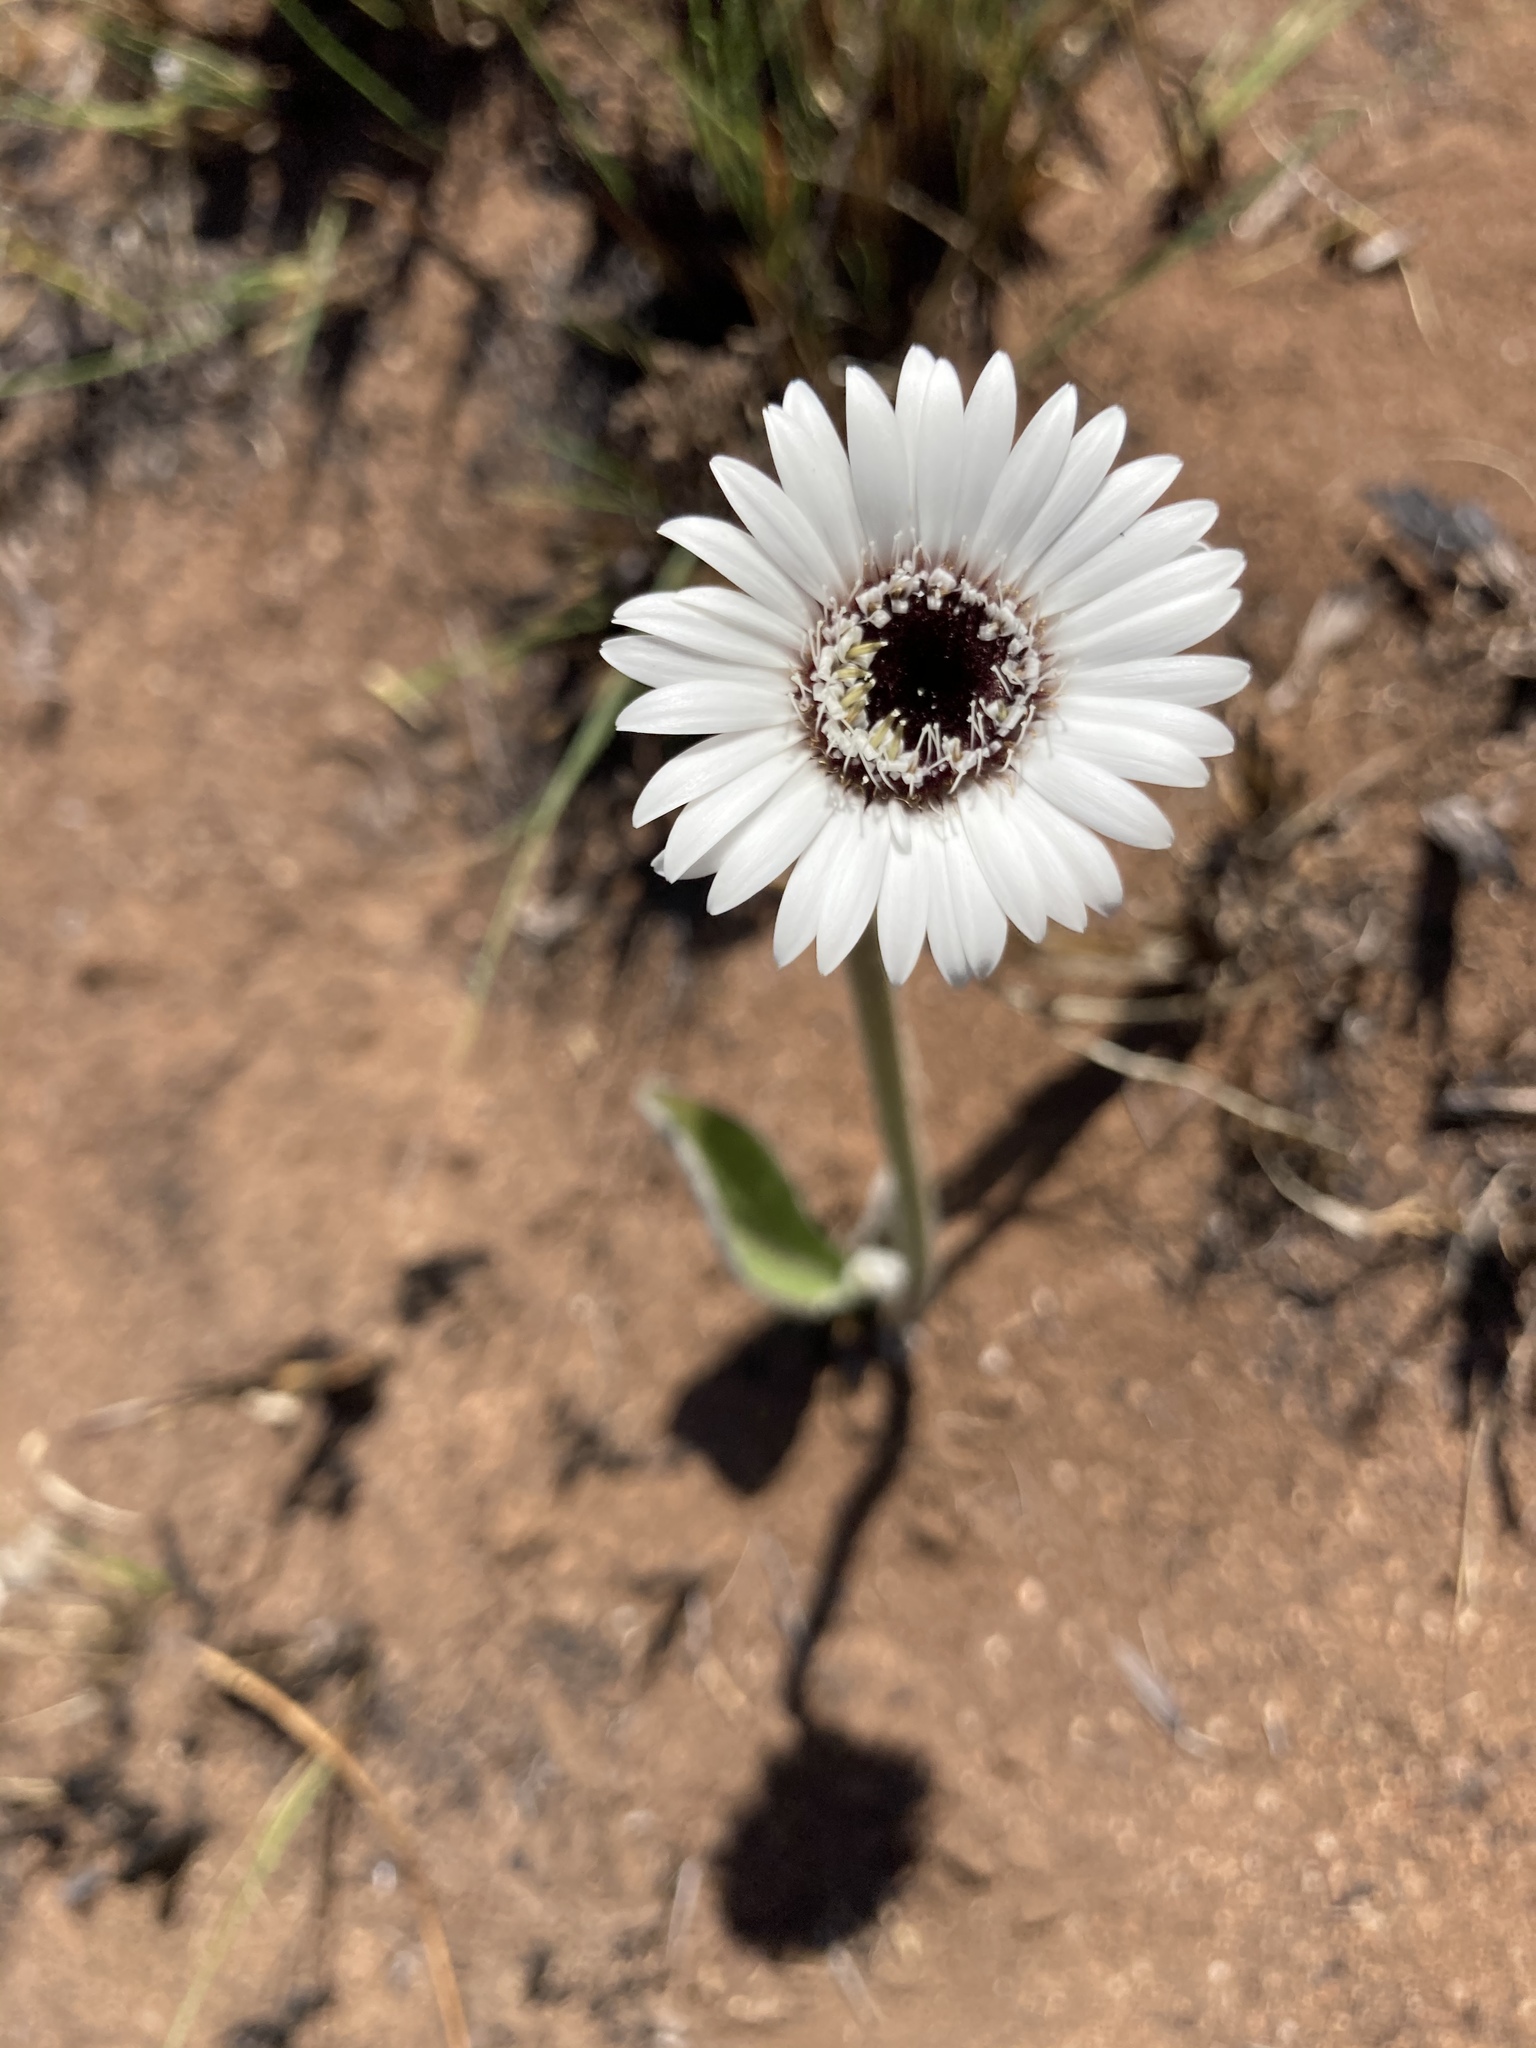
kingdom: Plantae
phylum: Tracheophyta
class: Magnoliopsida
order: Asterales
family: Asteraceae
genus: Gerbera
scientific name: Gerbera ambigua
